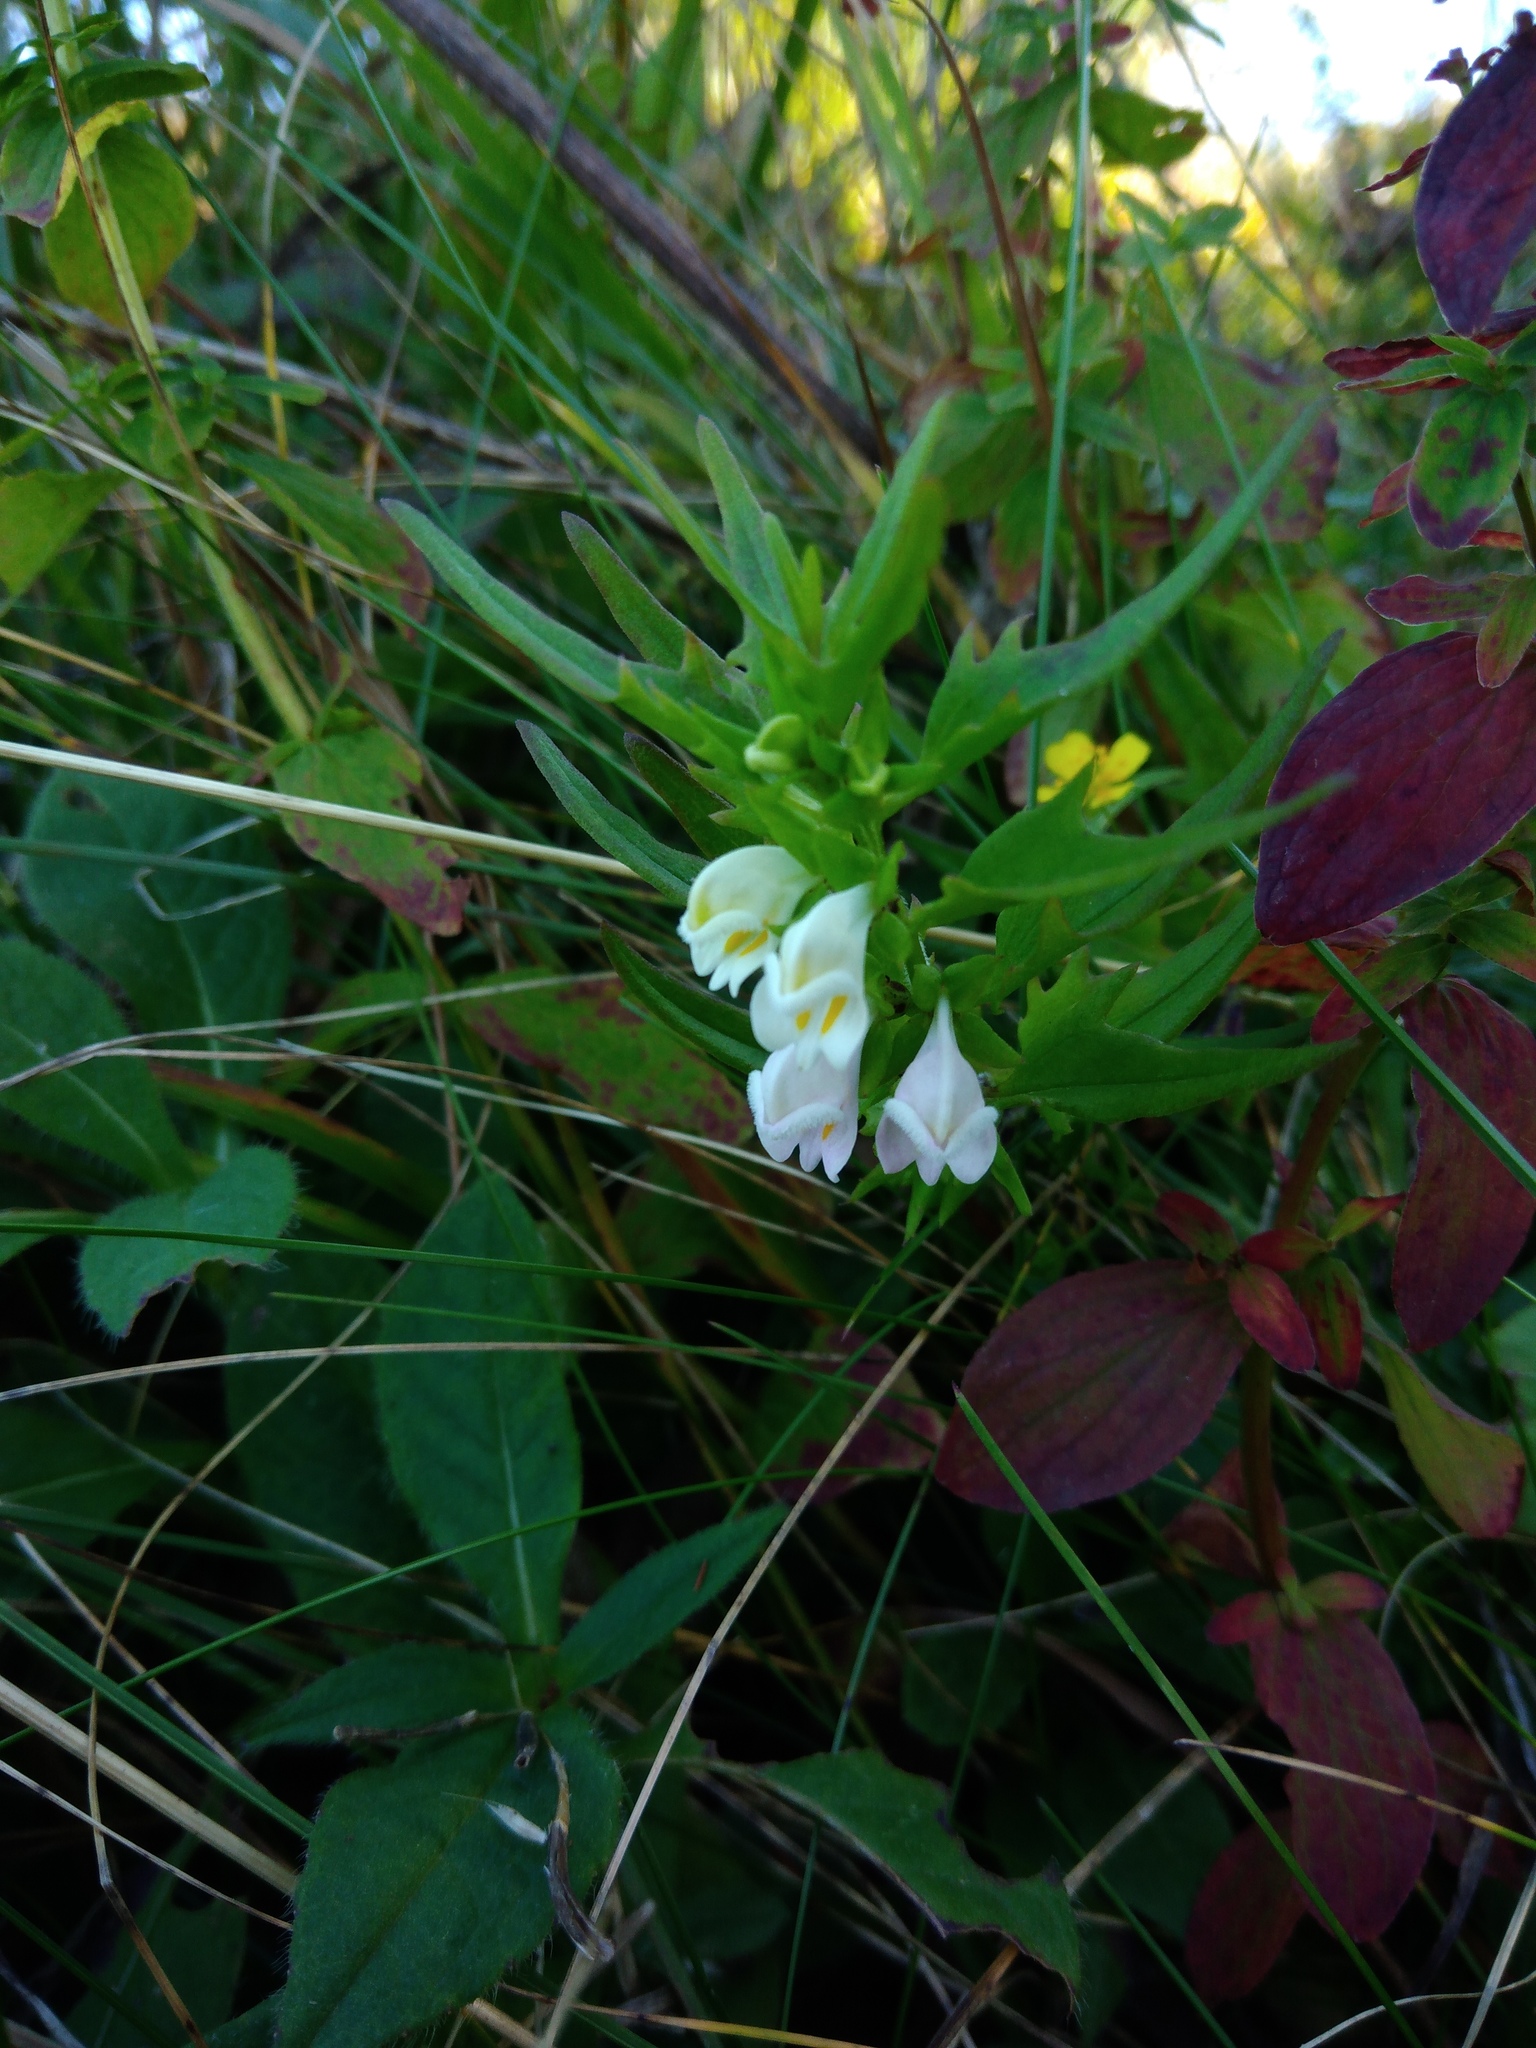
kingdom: Plantae
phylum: Tracheophyta
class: Magnoliopsida
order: Lamiales
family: Orobanchaceae
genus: Melampyrum
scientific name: Melampyrum saxosum
